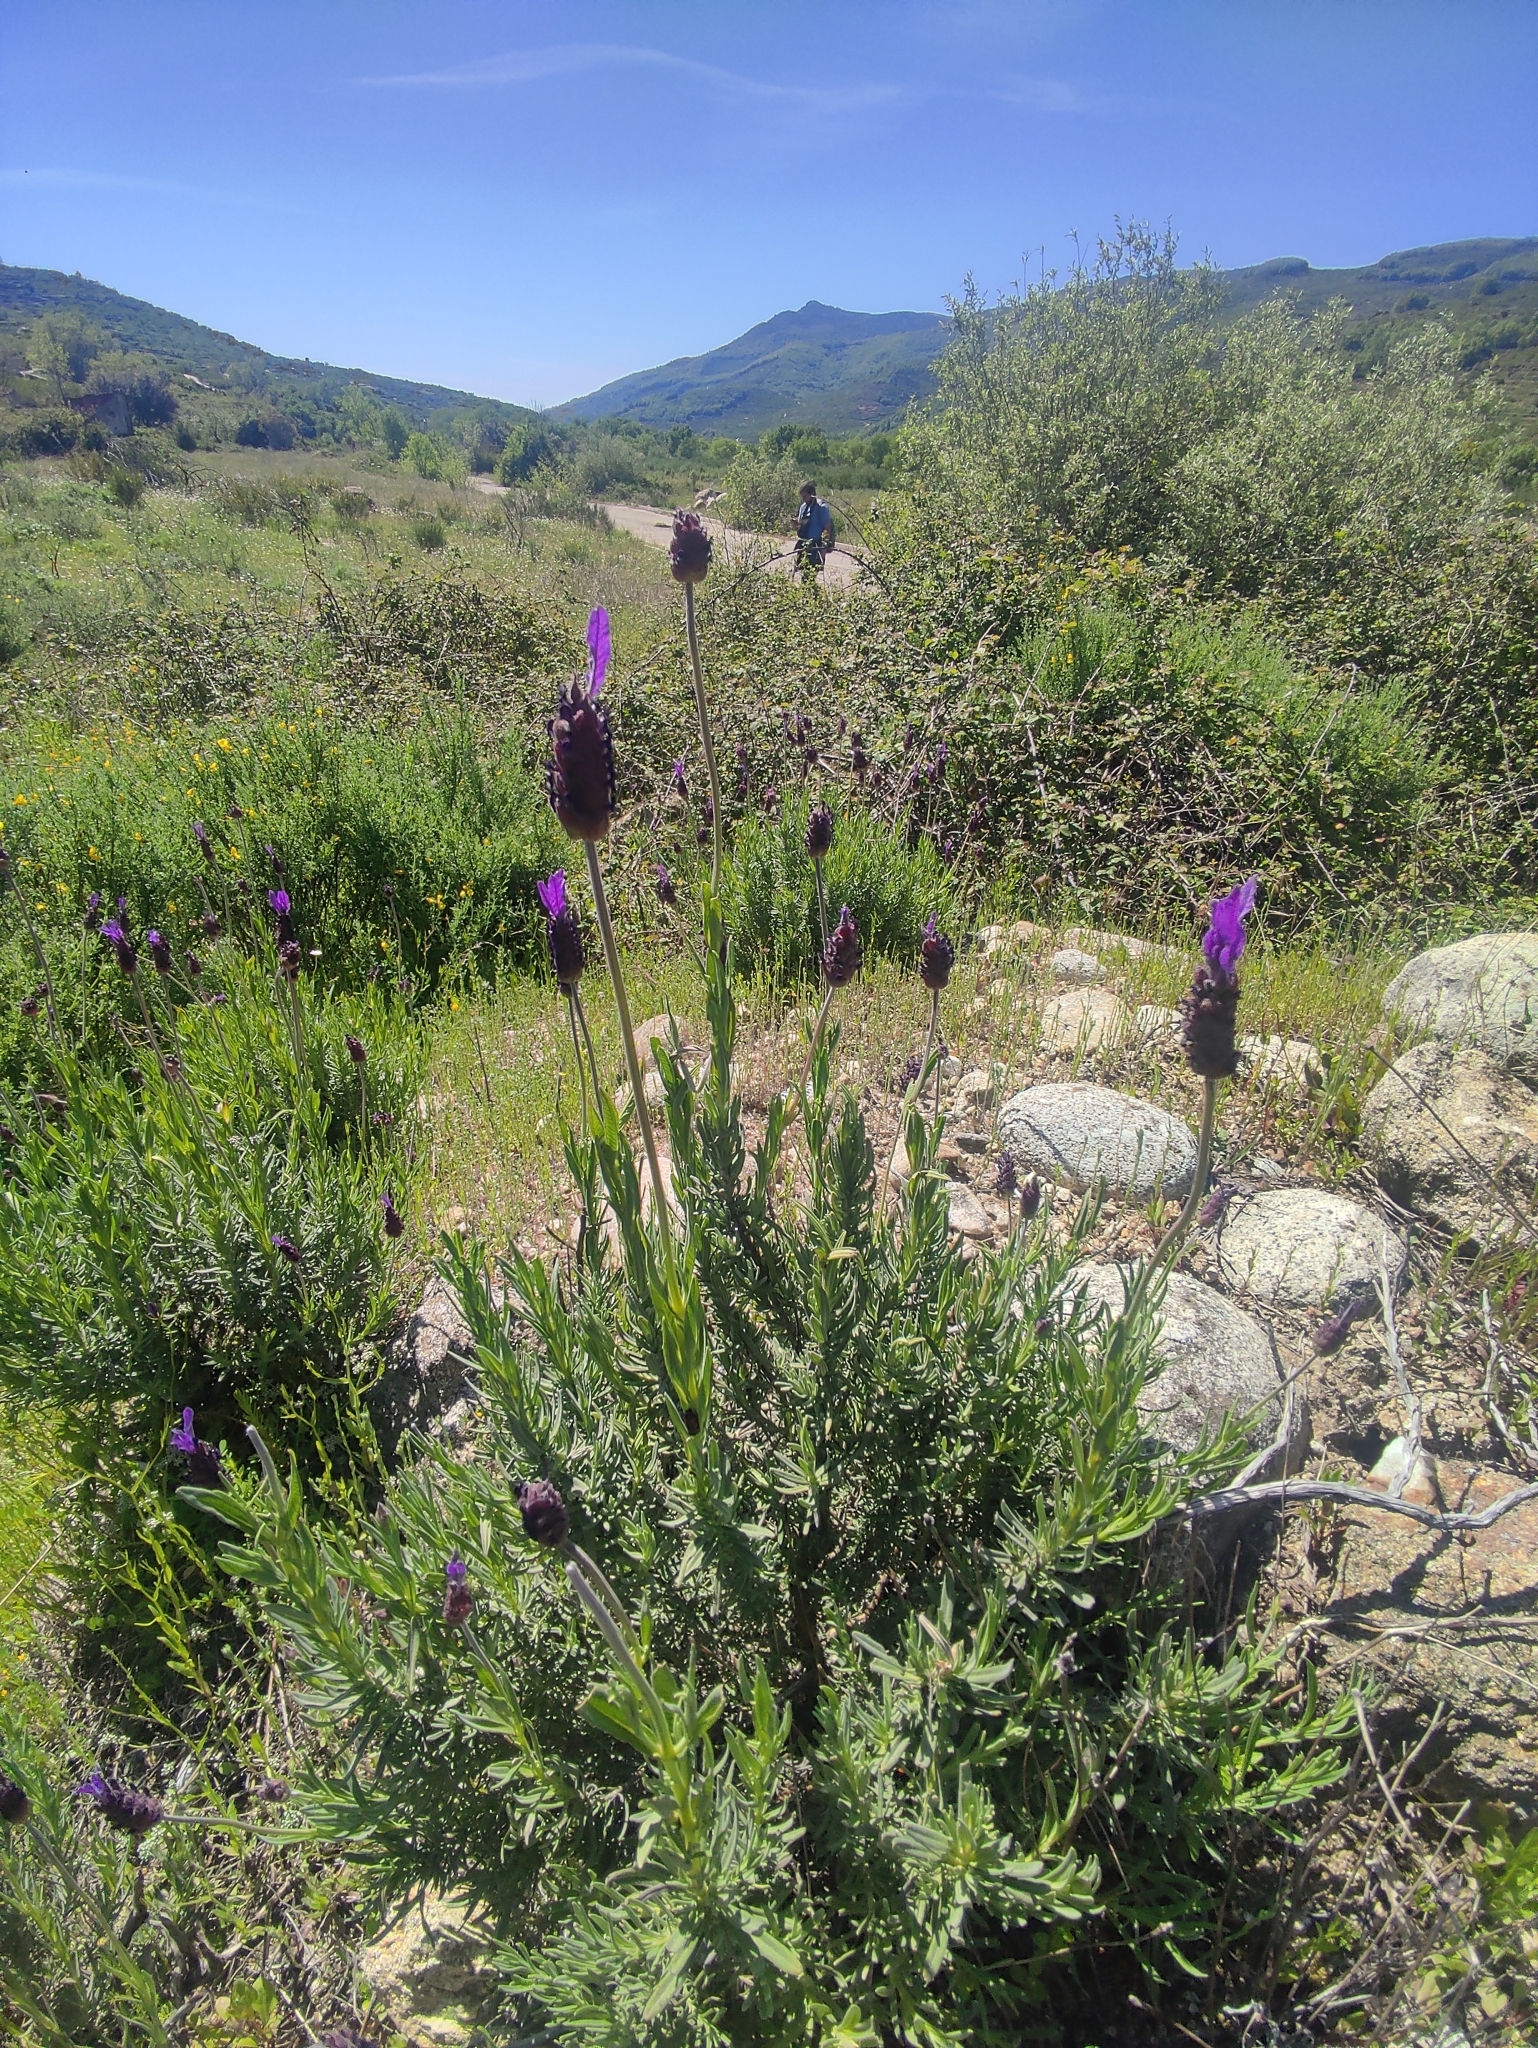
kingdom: Plantae
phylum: Tracheophyta
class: Magnoliopsida
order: Lamiales
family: Lamiaceae
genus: Lavandula
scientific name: Lavandula pedunculata
